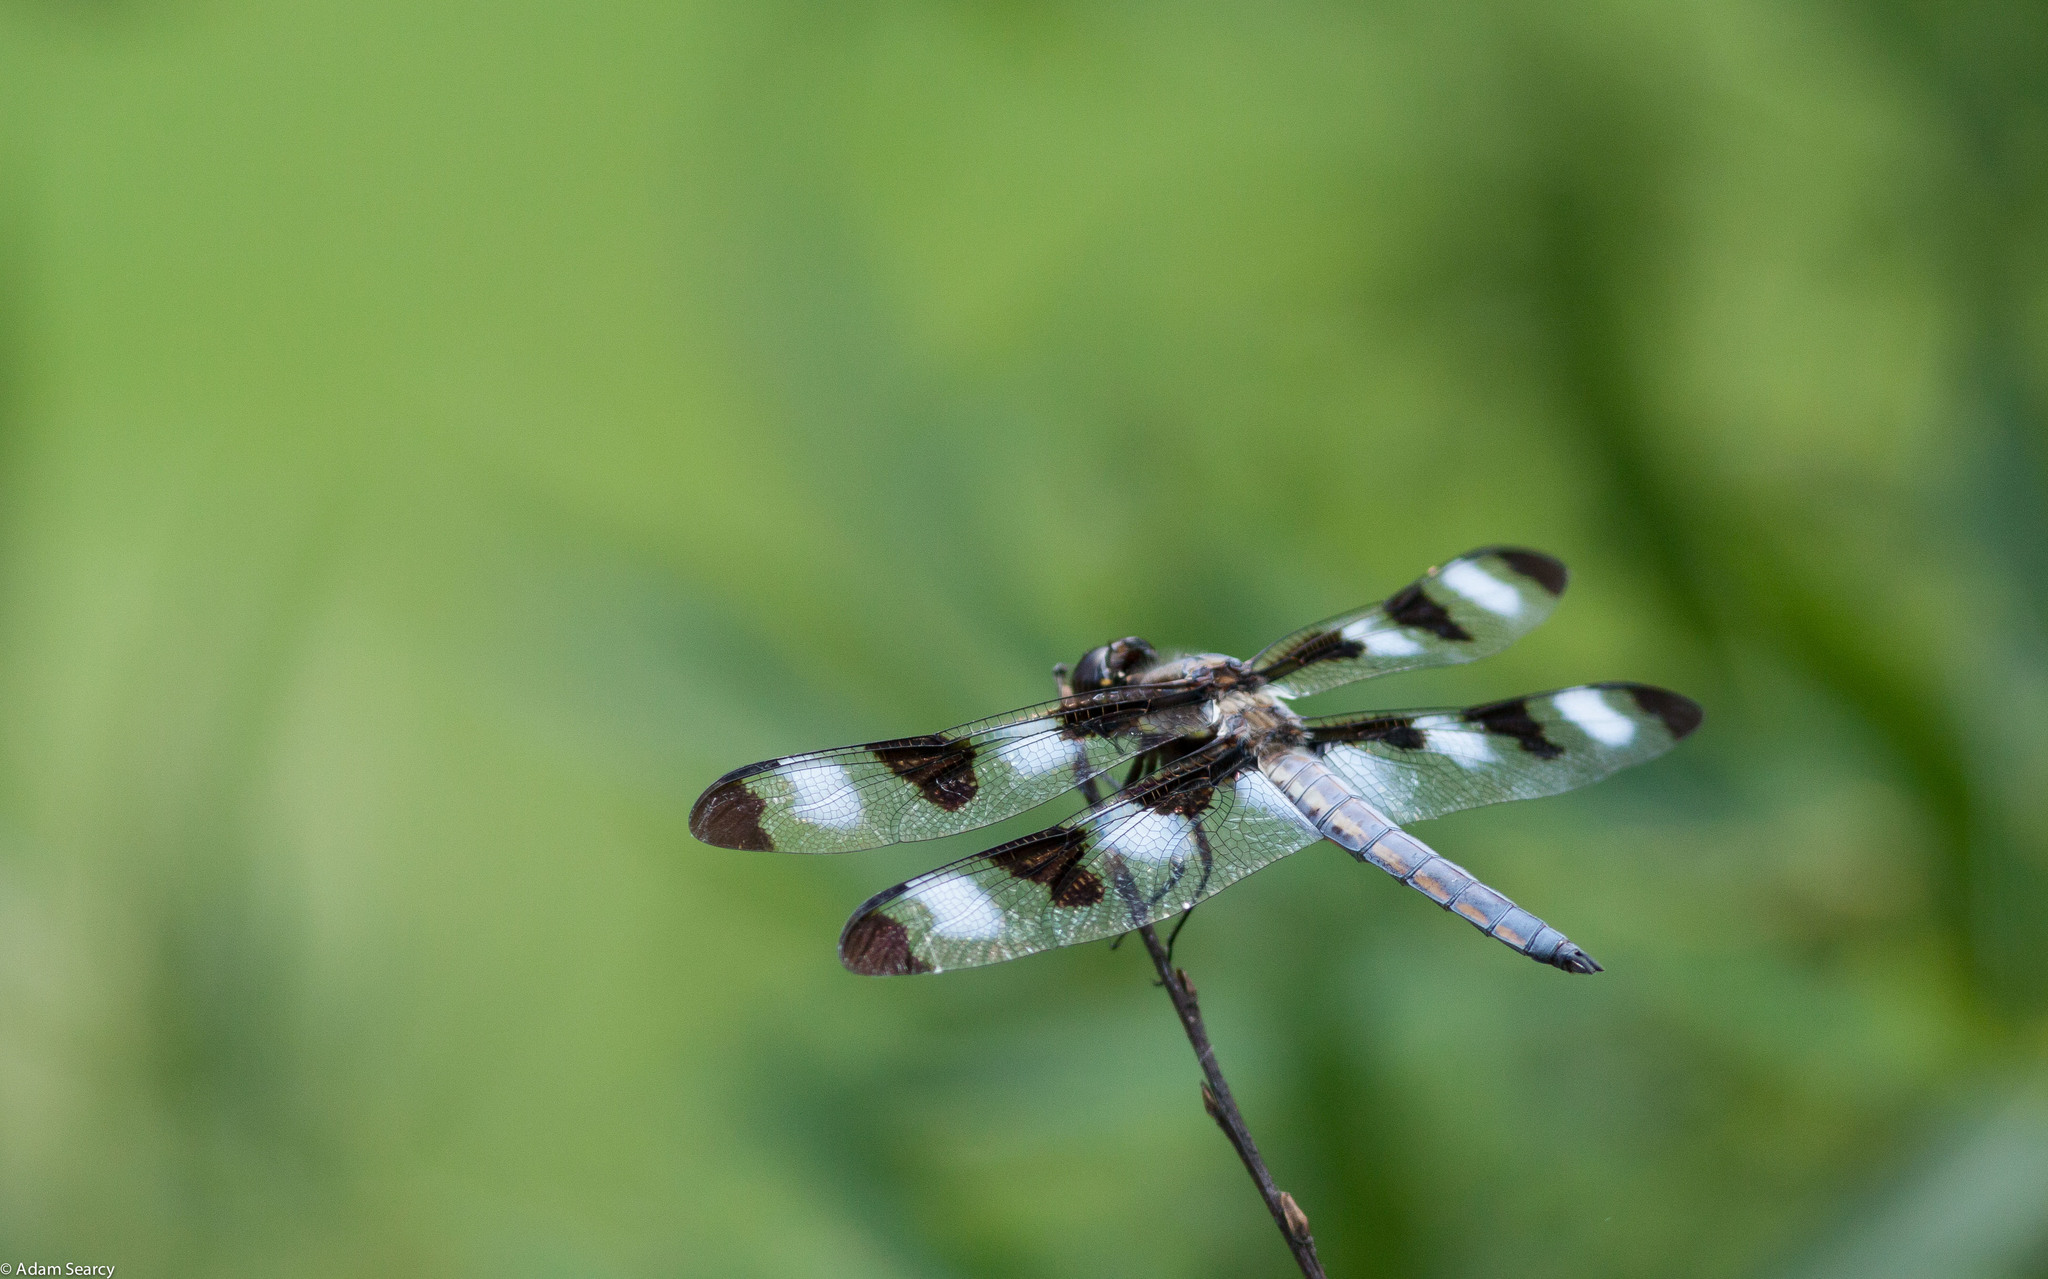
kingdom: Animalia
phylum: Arthropoda
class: Insecta
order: Odonata
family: Libellulidae
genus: Libellula
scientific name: Libellula pulchella
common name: Twelve-spotted skimmer
